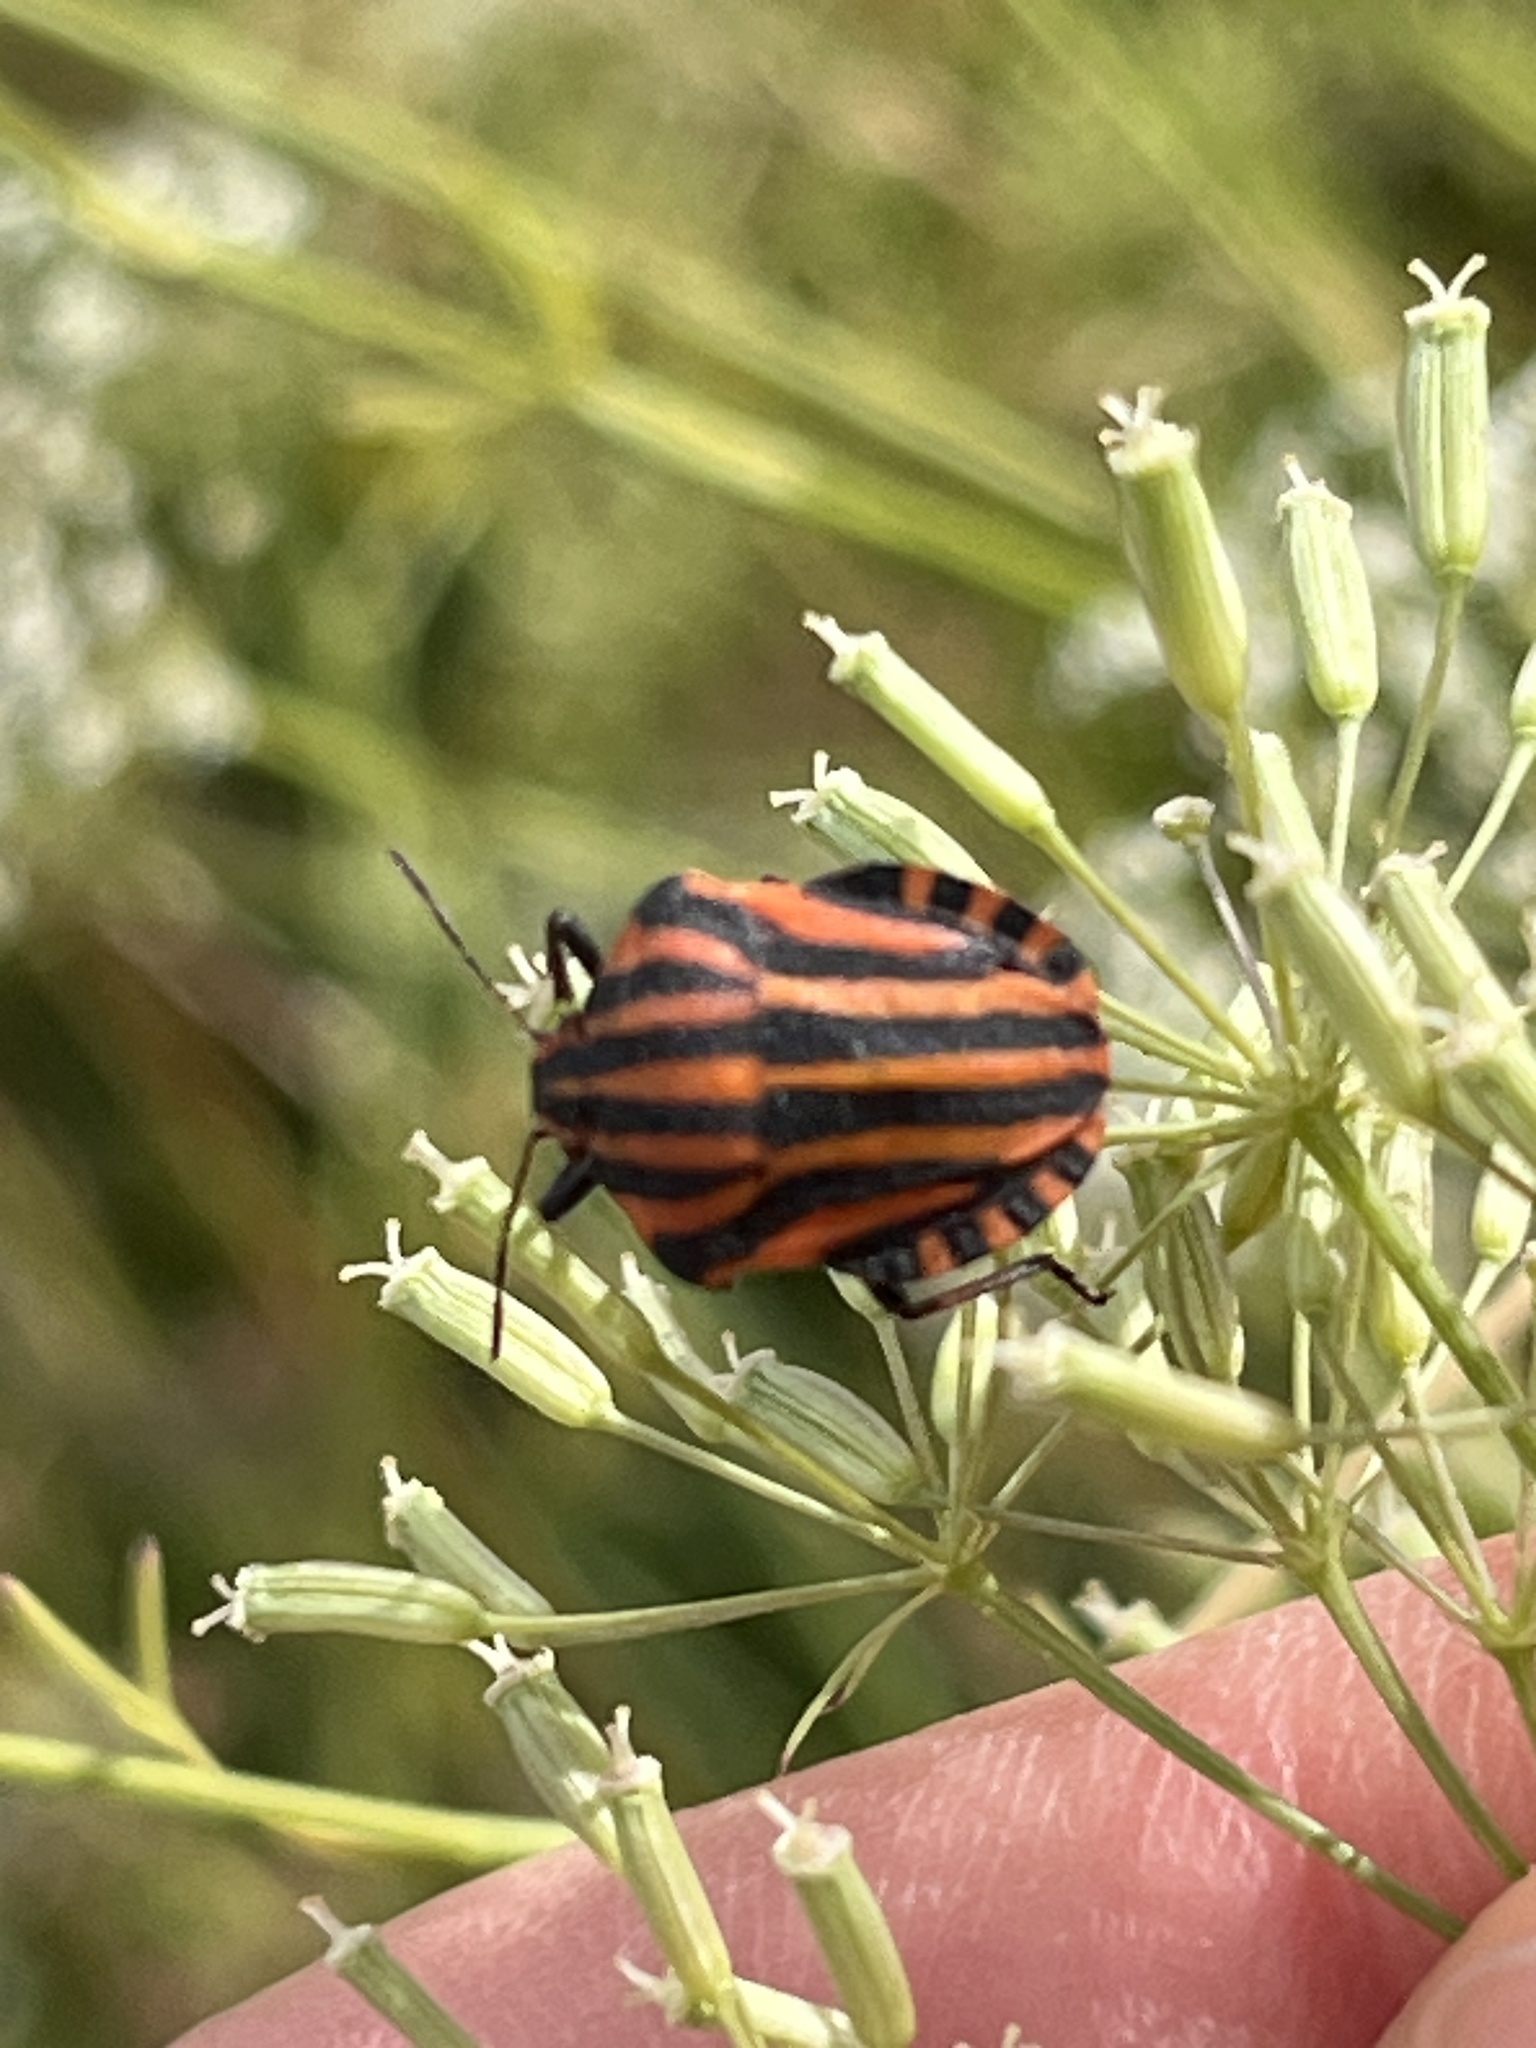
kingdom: Animalia
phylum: Arthropoda
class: Insecta
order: Hemiptera
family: Pentatomidae
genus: Graphosoma
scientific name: Graphosoma italicum
